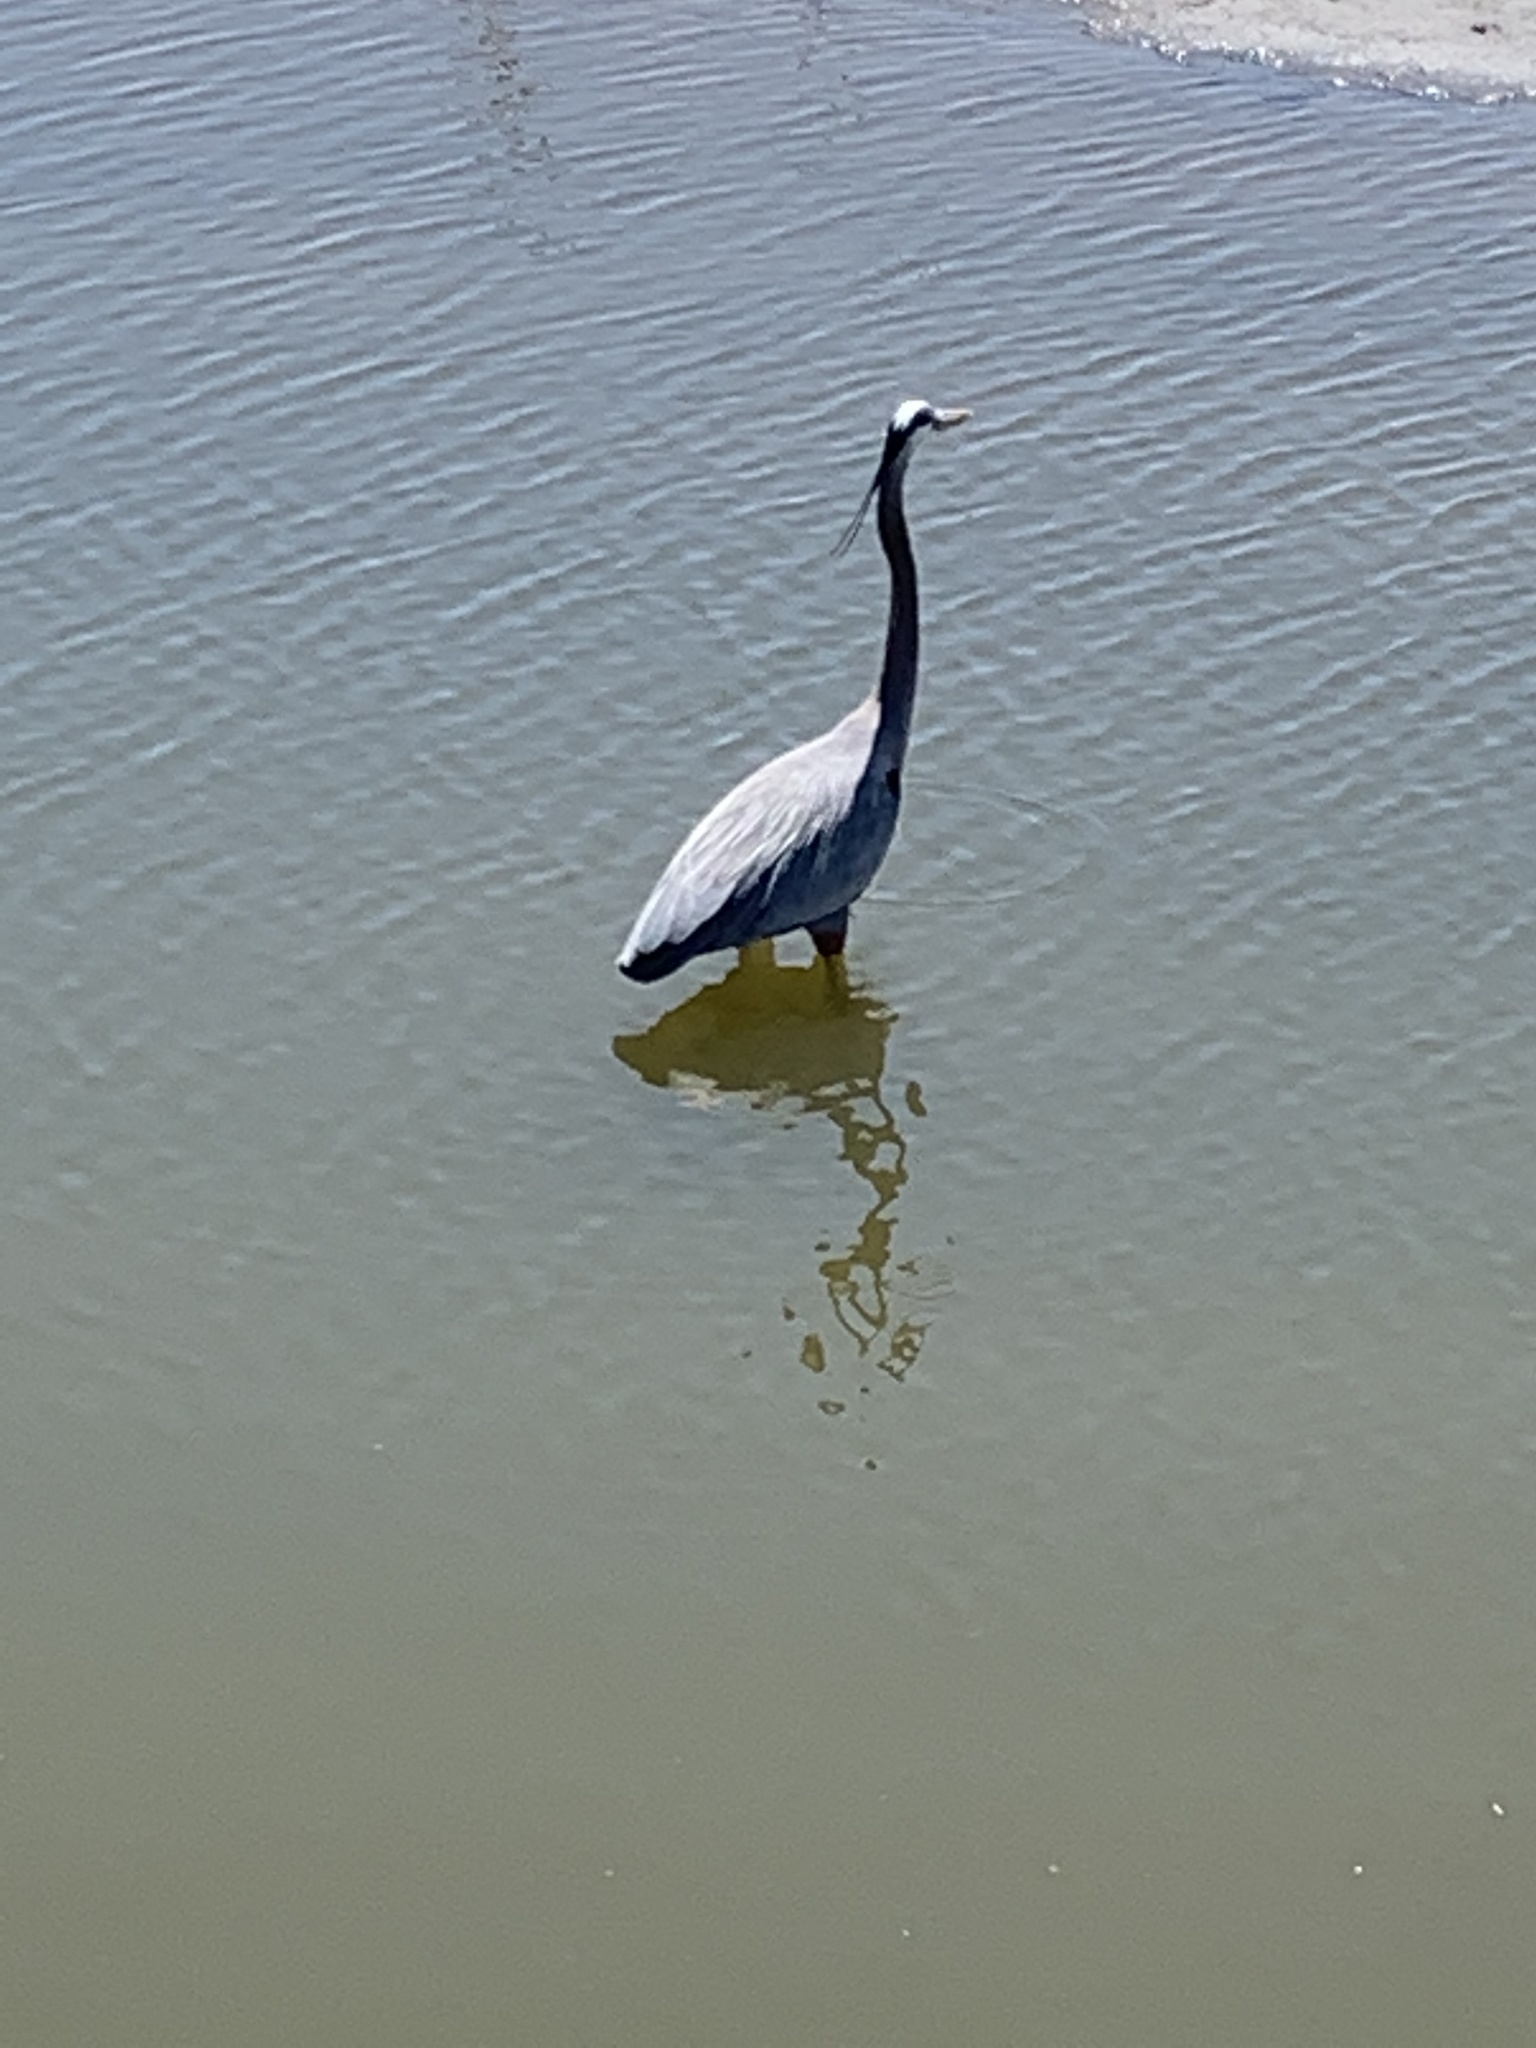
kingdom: Animalia
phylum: Chordata
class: Aves
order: Pelecaniformes
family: Ardeidae
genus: Ardea
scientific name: Ardea herodias
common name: Great blue heron
